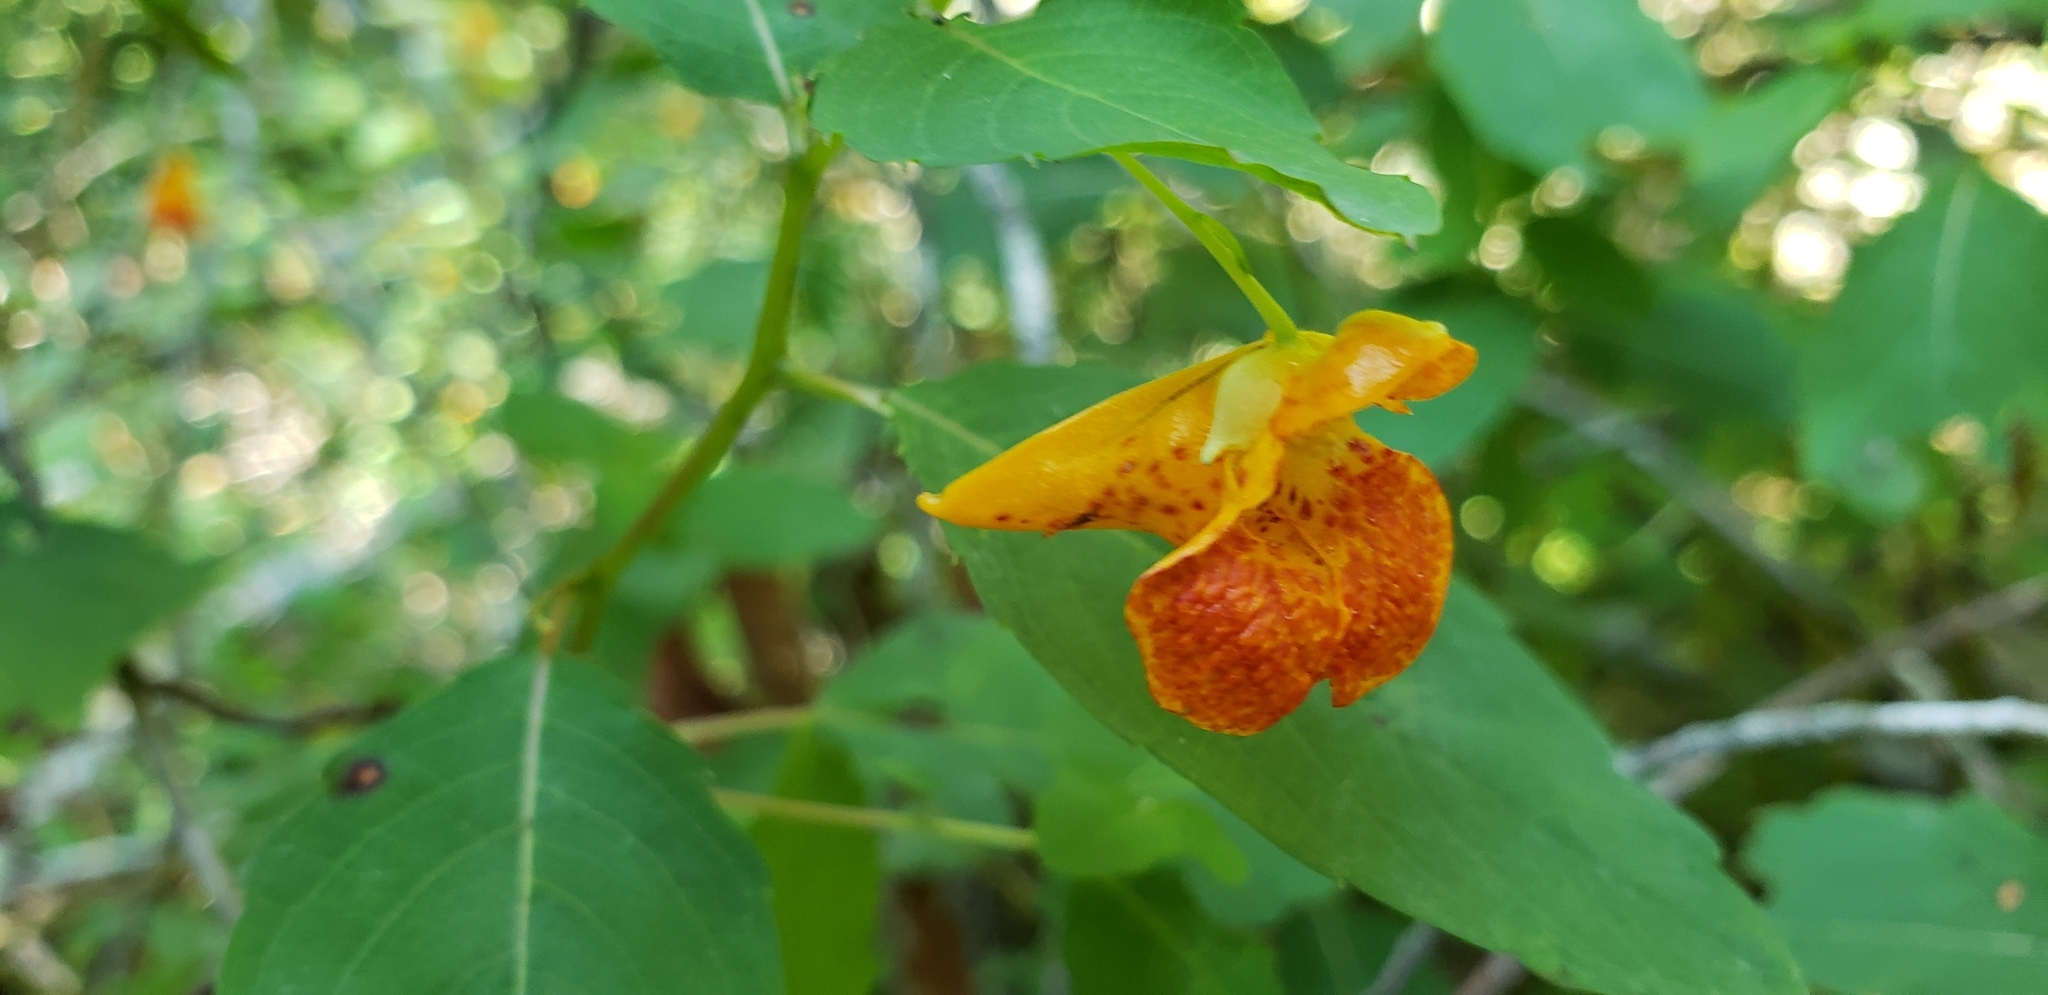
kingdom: Plantae
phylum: Tracheophyta
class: Magnoliopsida
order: Ericales
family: Balsaminaceae
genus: Impatiens
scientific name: Impatiens capensis
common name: Orange balsam
